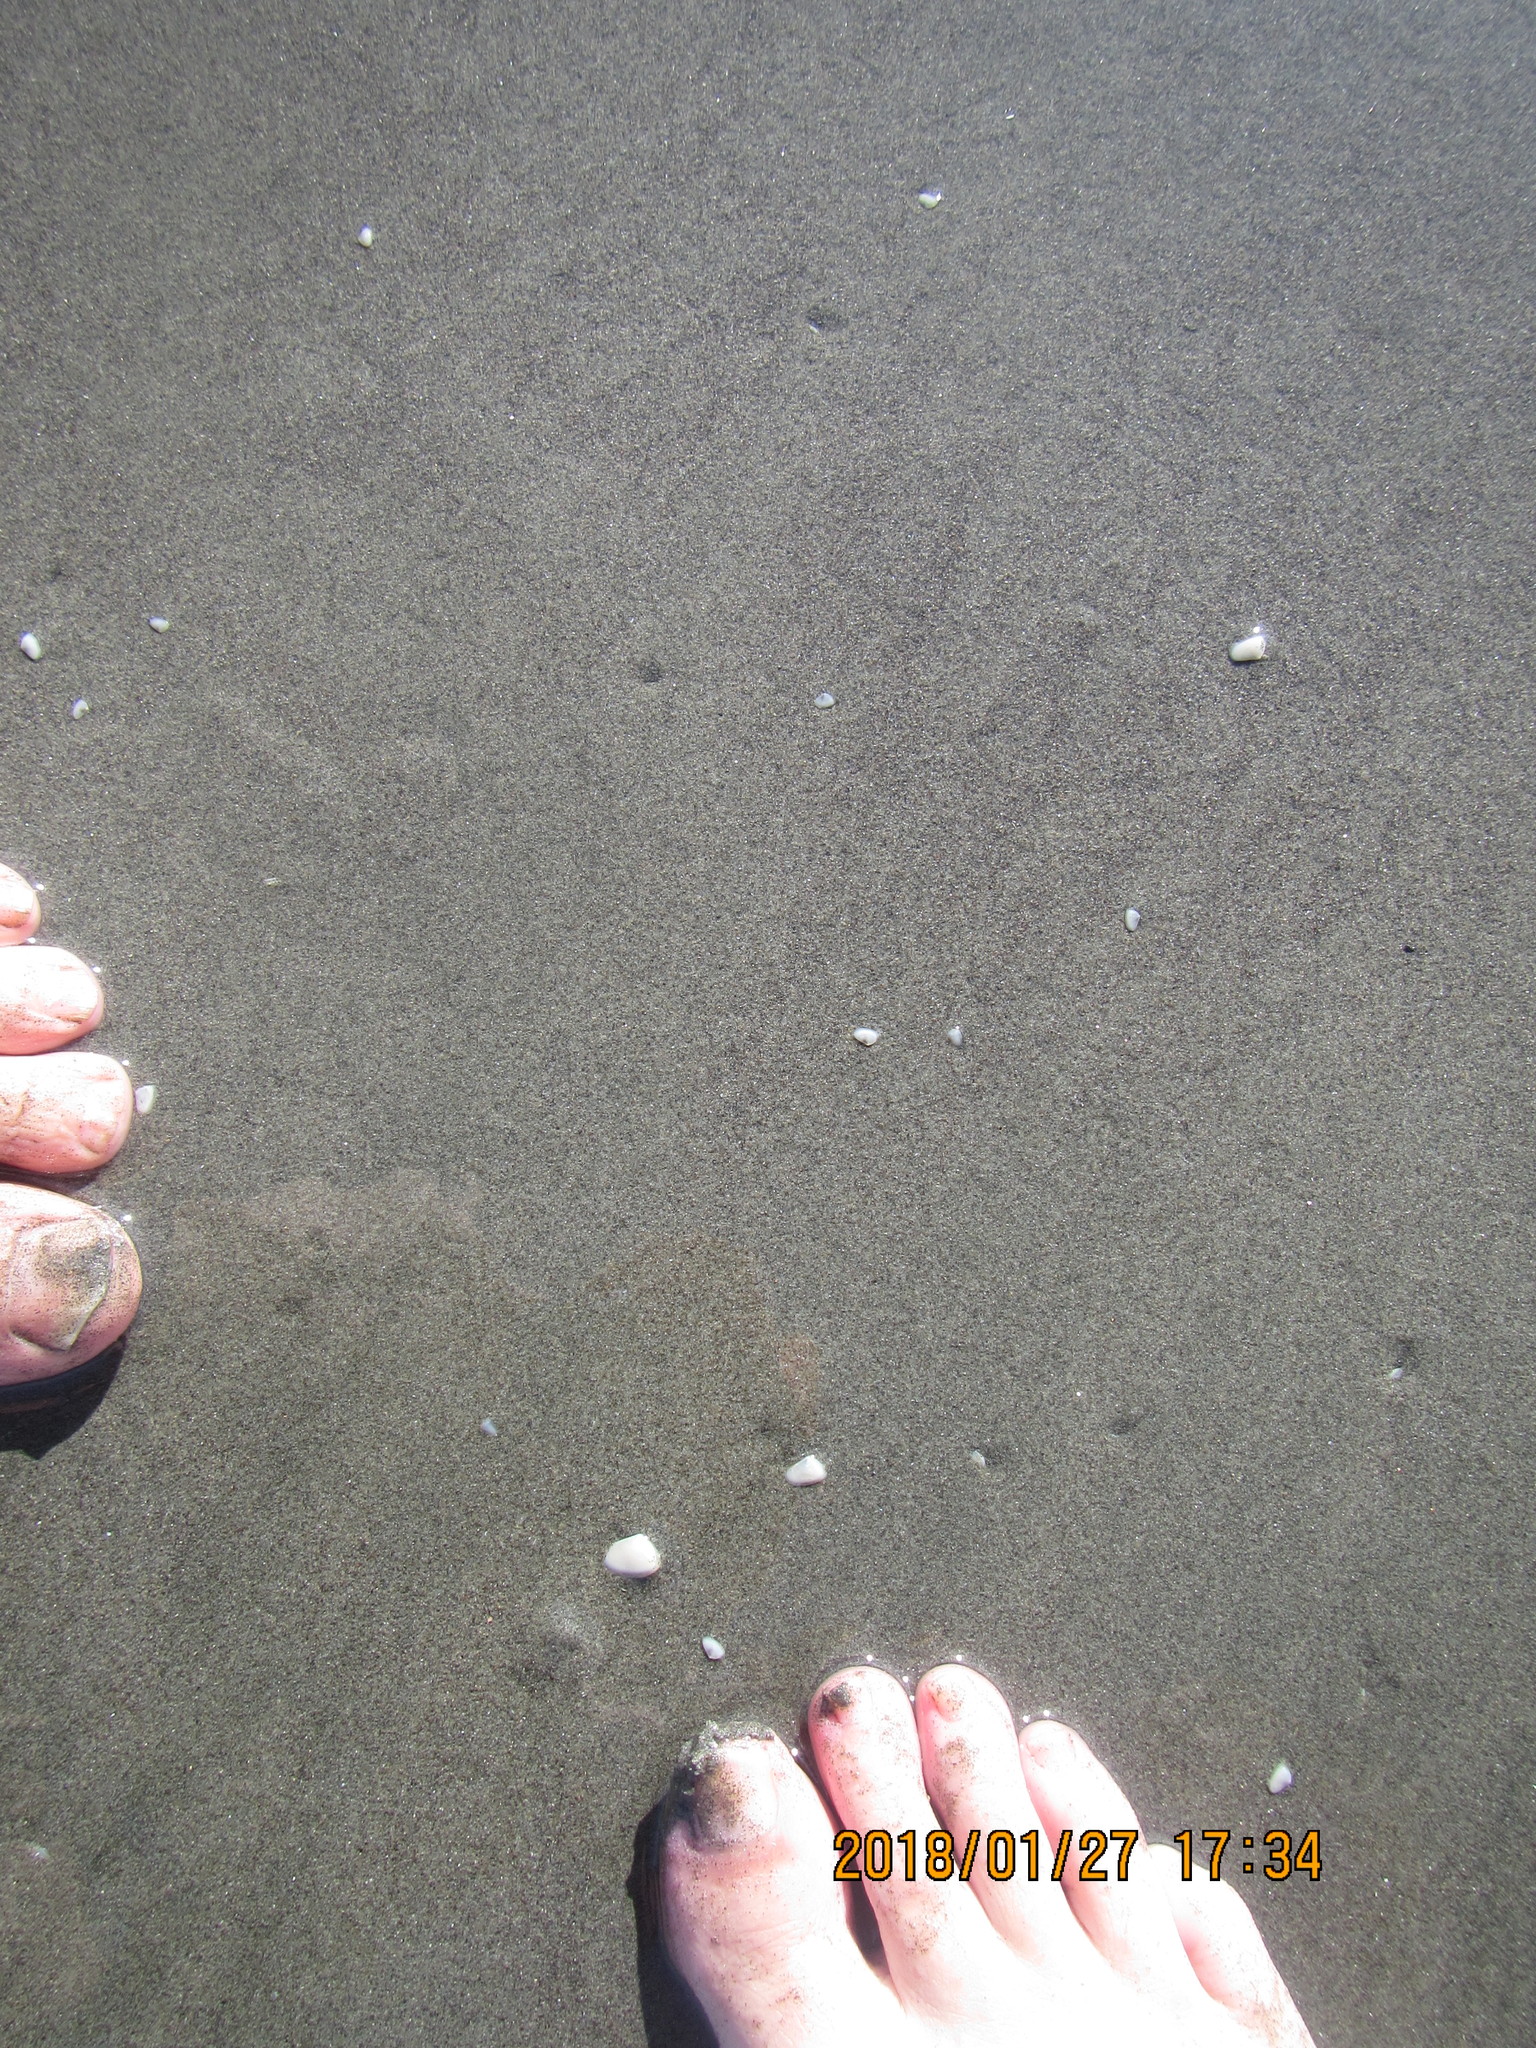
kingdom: Animalia
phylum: Mollusca
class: Bivalvia
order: Venerida
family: Mesodesmatidae
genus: Paphies
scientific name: Paphies subtriangulata
